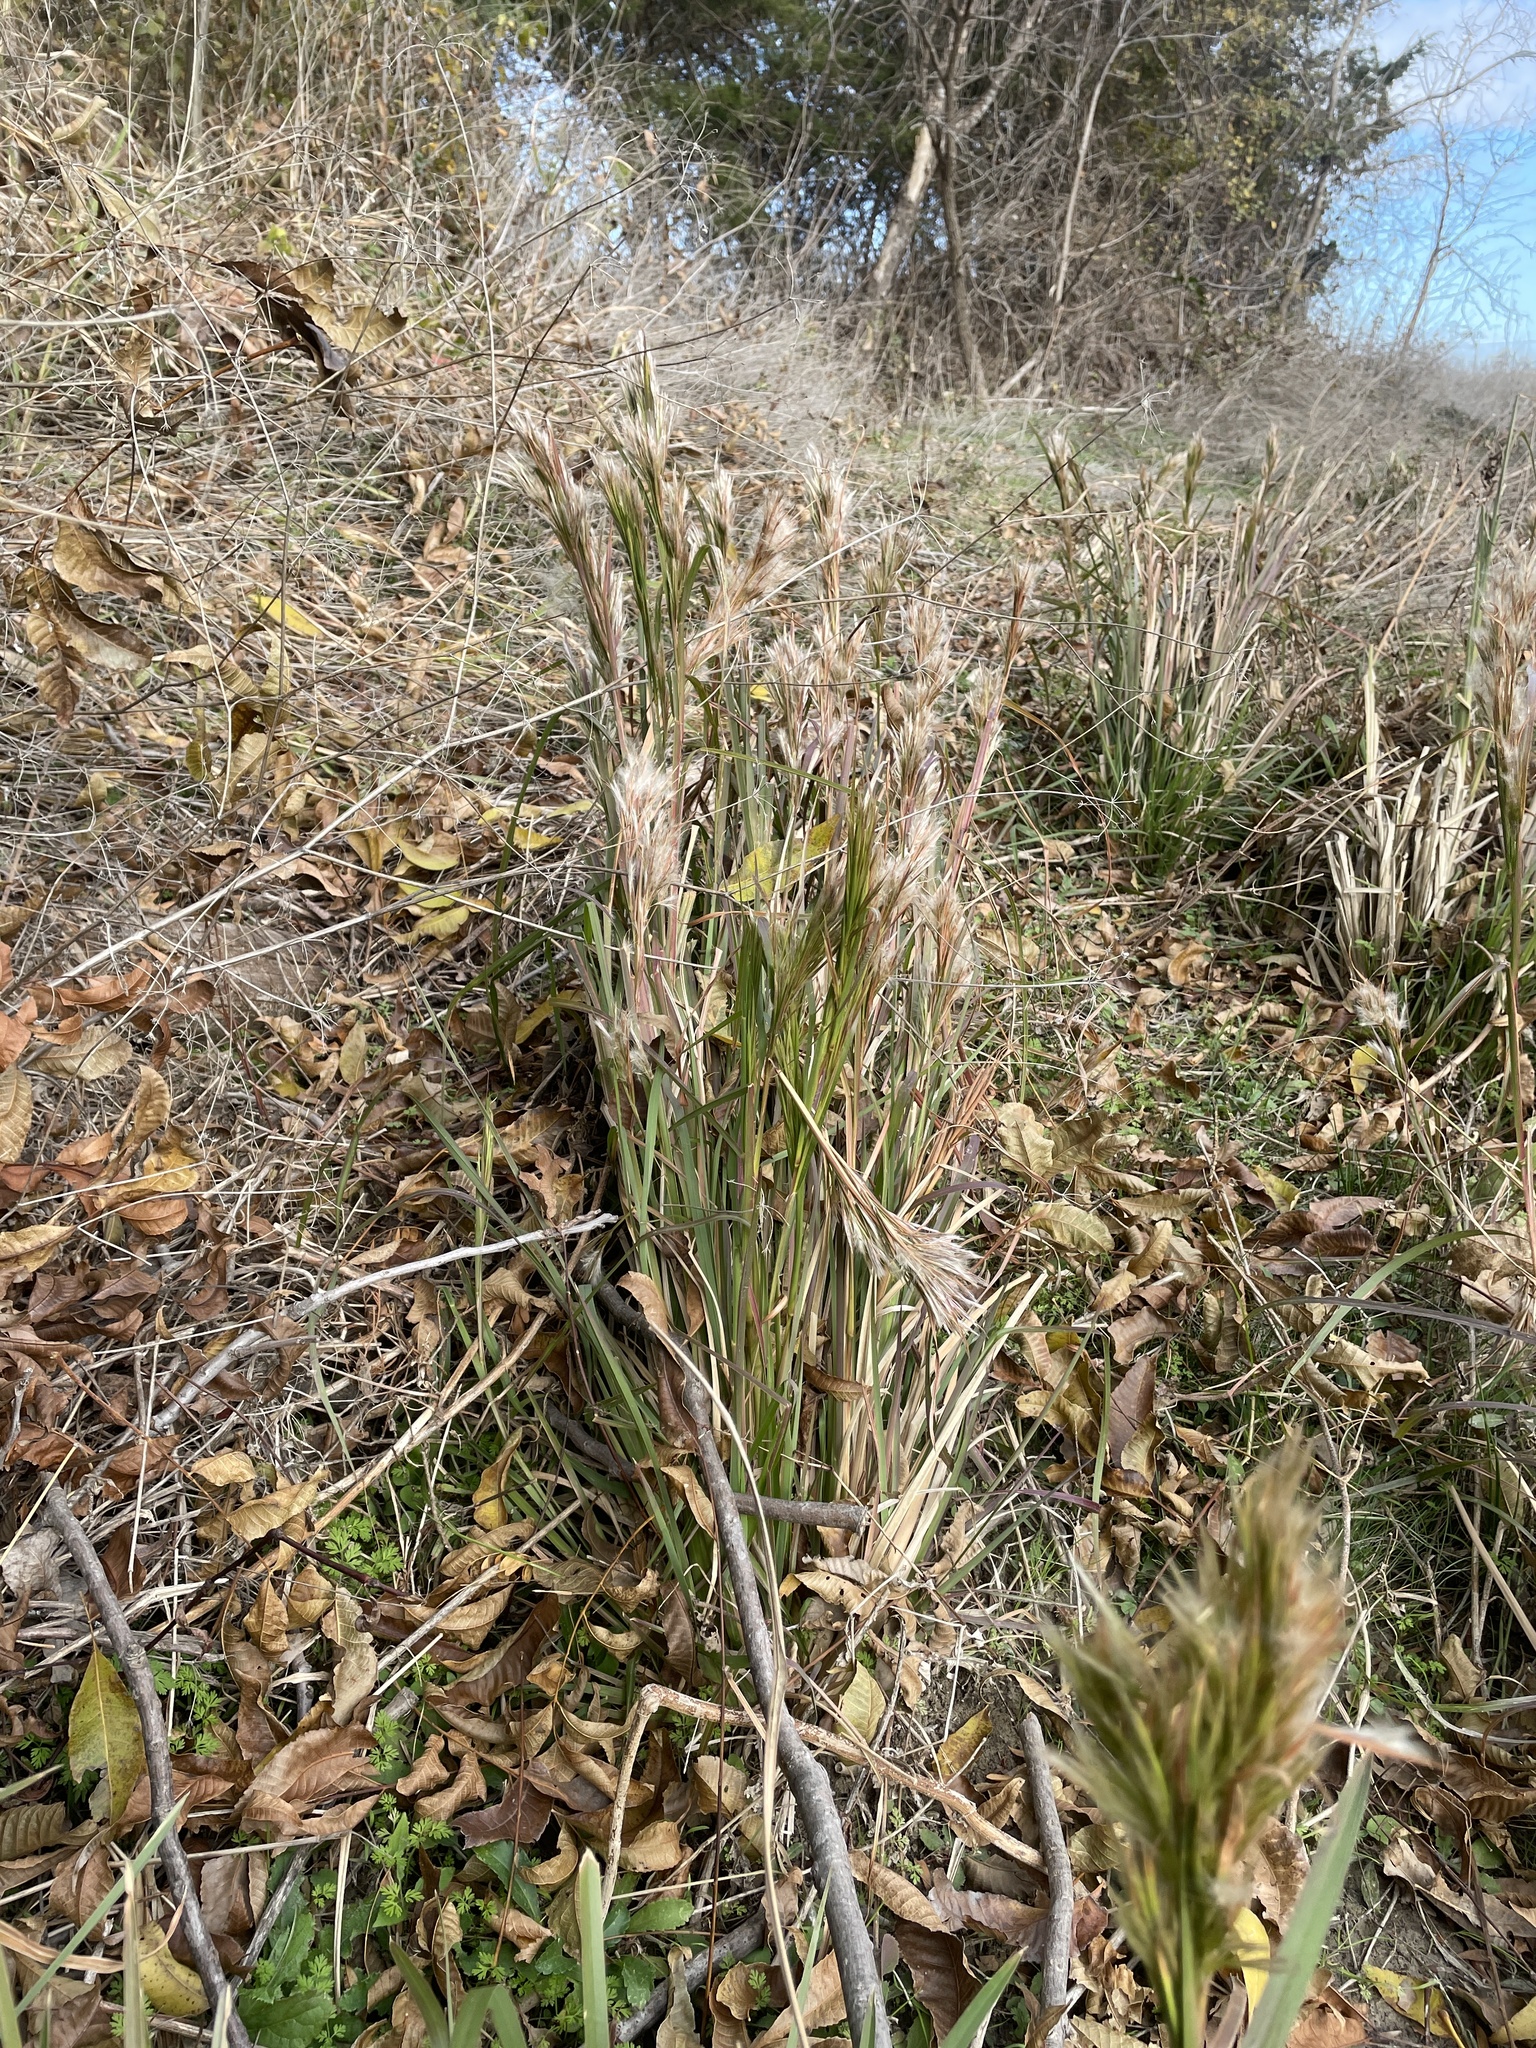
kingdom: Plantae
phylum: Tracheophyta
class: Liliopsida
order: Poales
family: Poaceae
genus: Andropogon
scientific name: Andropogon tenuispatheus
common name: Bushy bluestem
